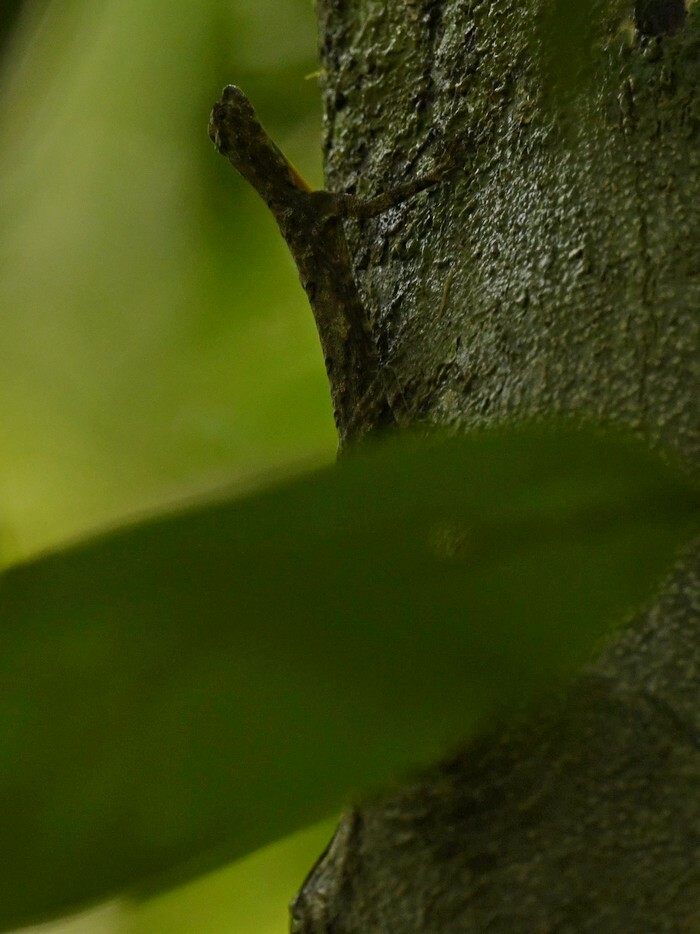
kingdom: Animalia
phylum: Chordata
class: Squamata
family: Agamidae
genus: Draco
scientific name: Draco dussumieri
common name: Southern flying lizard
